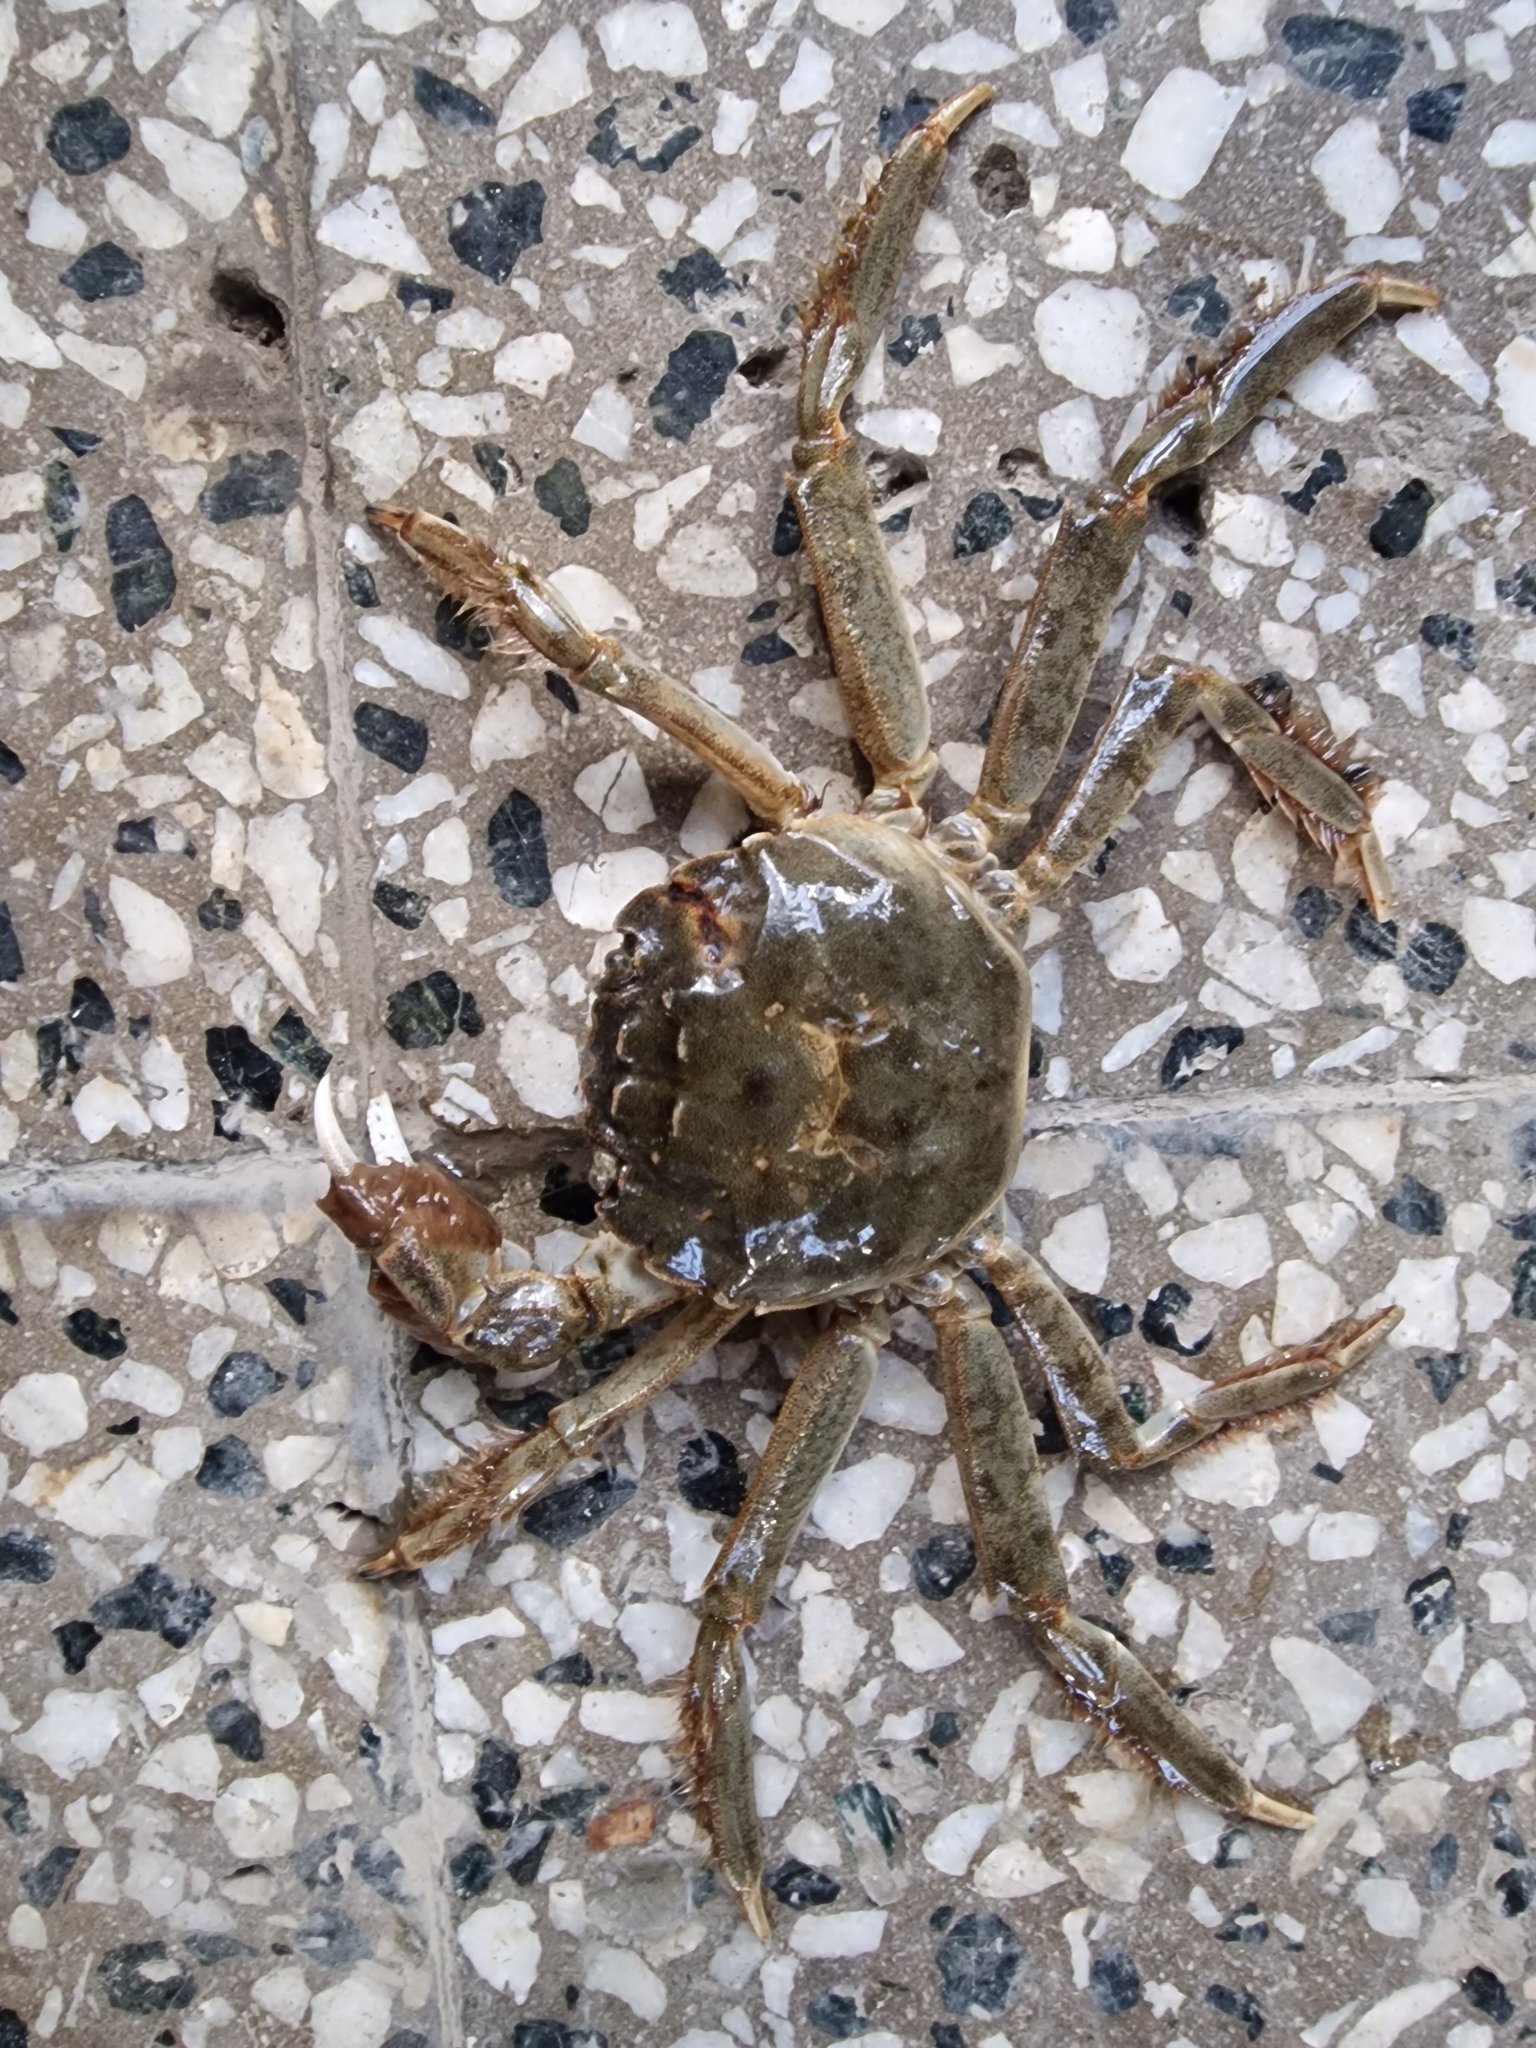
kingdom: Animalia
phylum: Arthropoda
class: Malacostraca
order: Decapoda
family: Varunidae
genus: Eriocheir
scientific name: Eriocheir sinensis
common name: Chinese mitten crab
